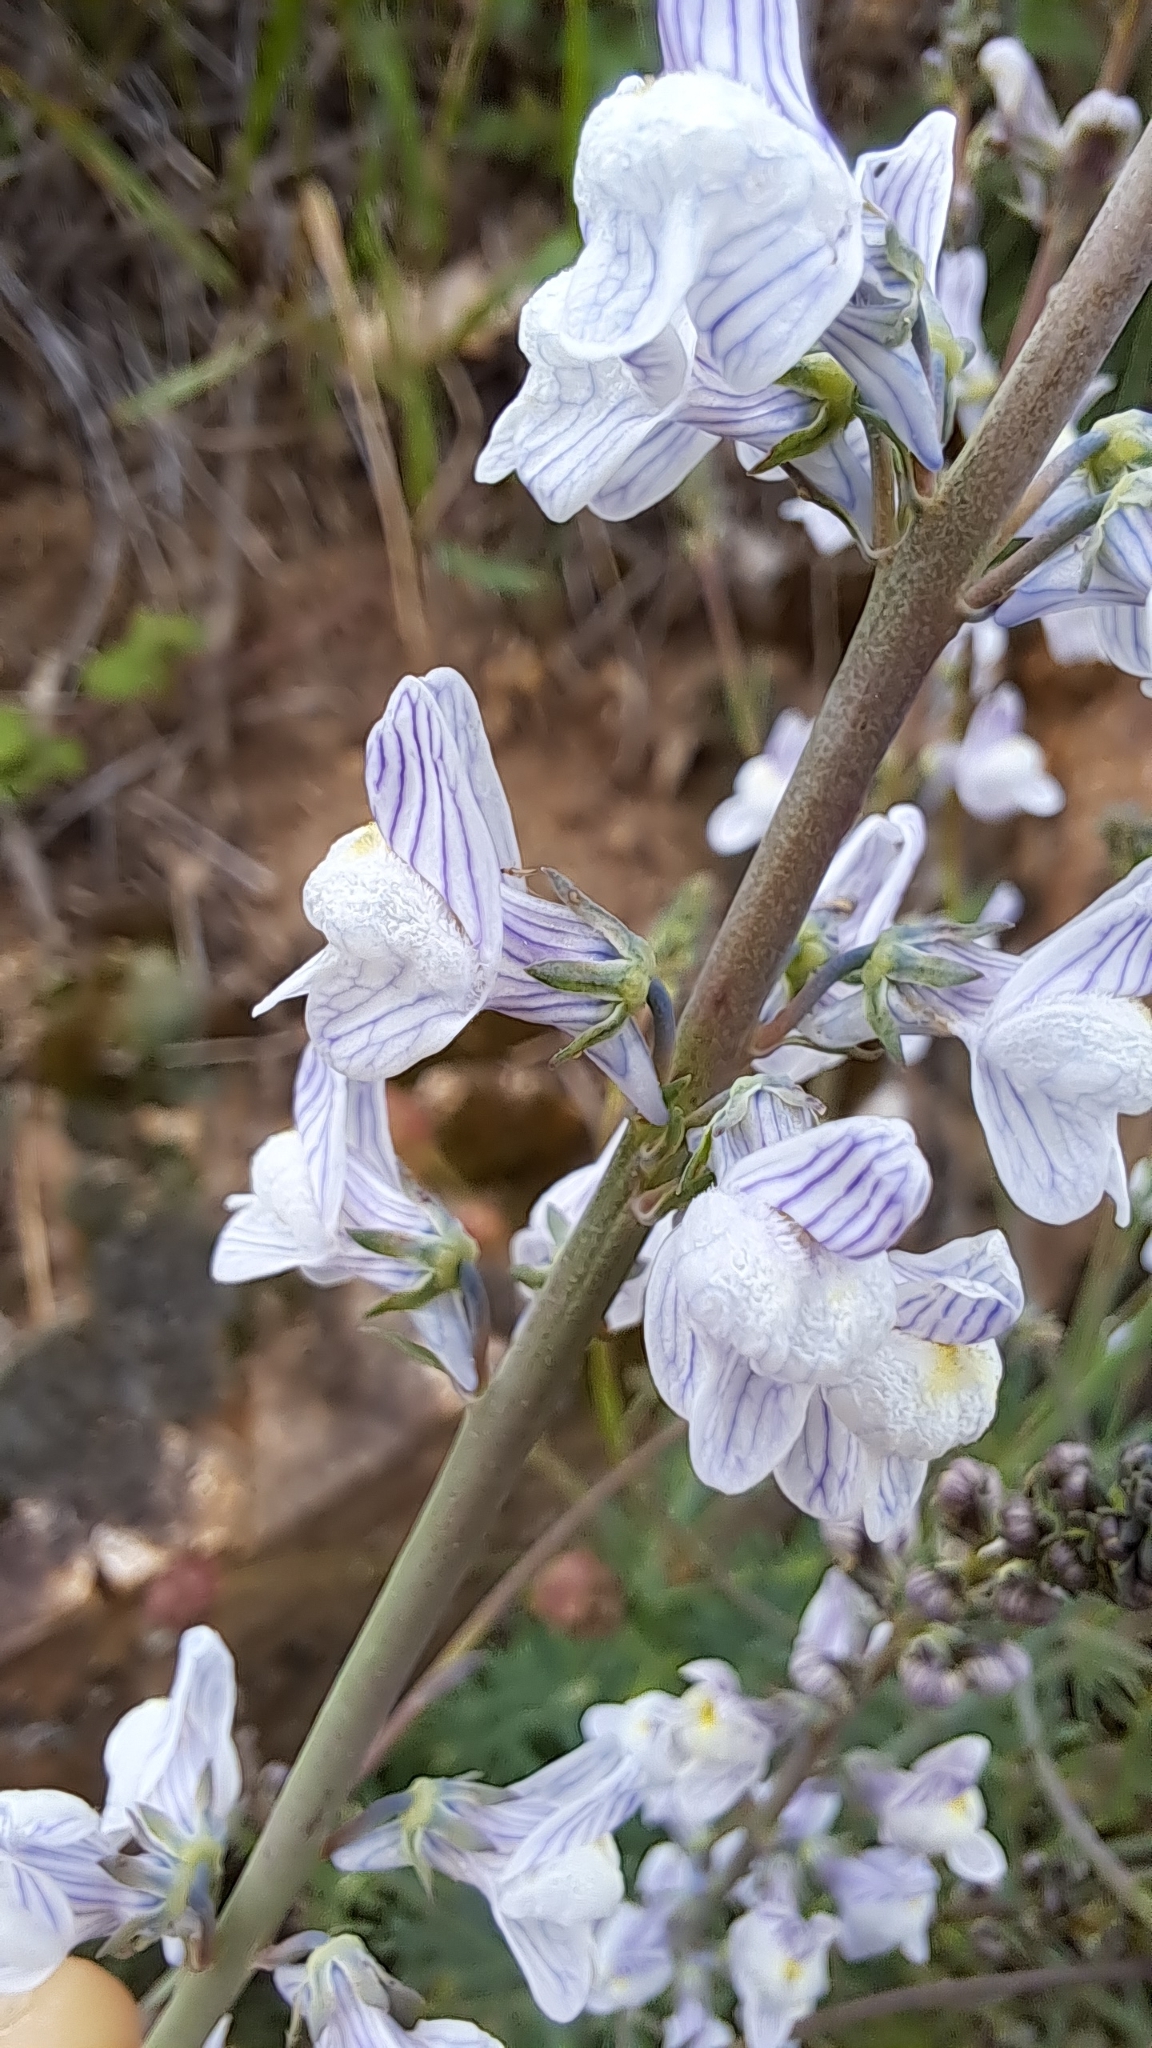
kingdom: Plantae
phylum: Tracheophyta
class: Magnoliopsida
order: Lamiales
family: Plantaginaceae
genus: Linaria
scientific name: Linaria repens
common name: Pale toadflax
